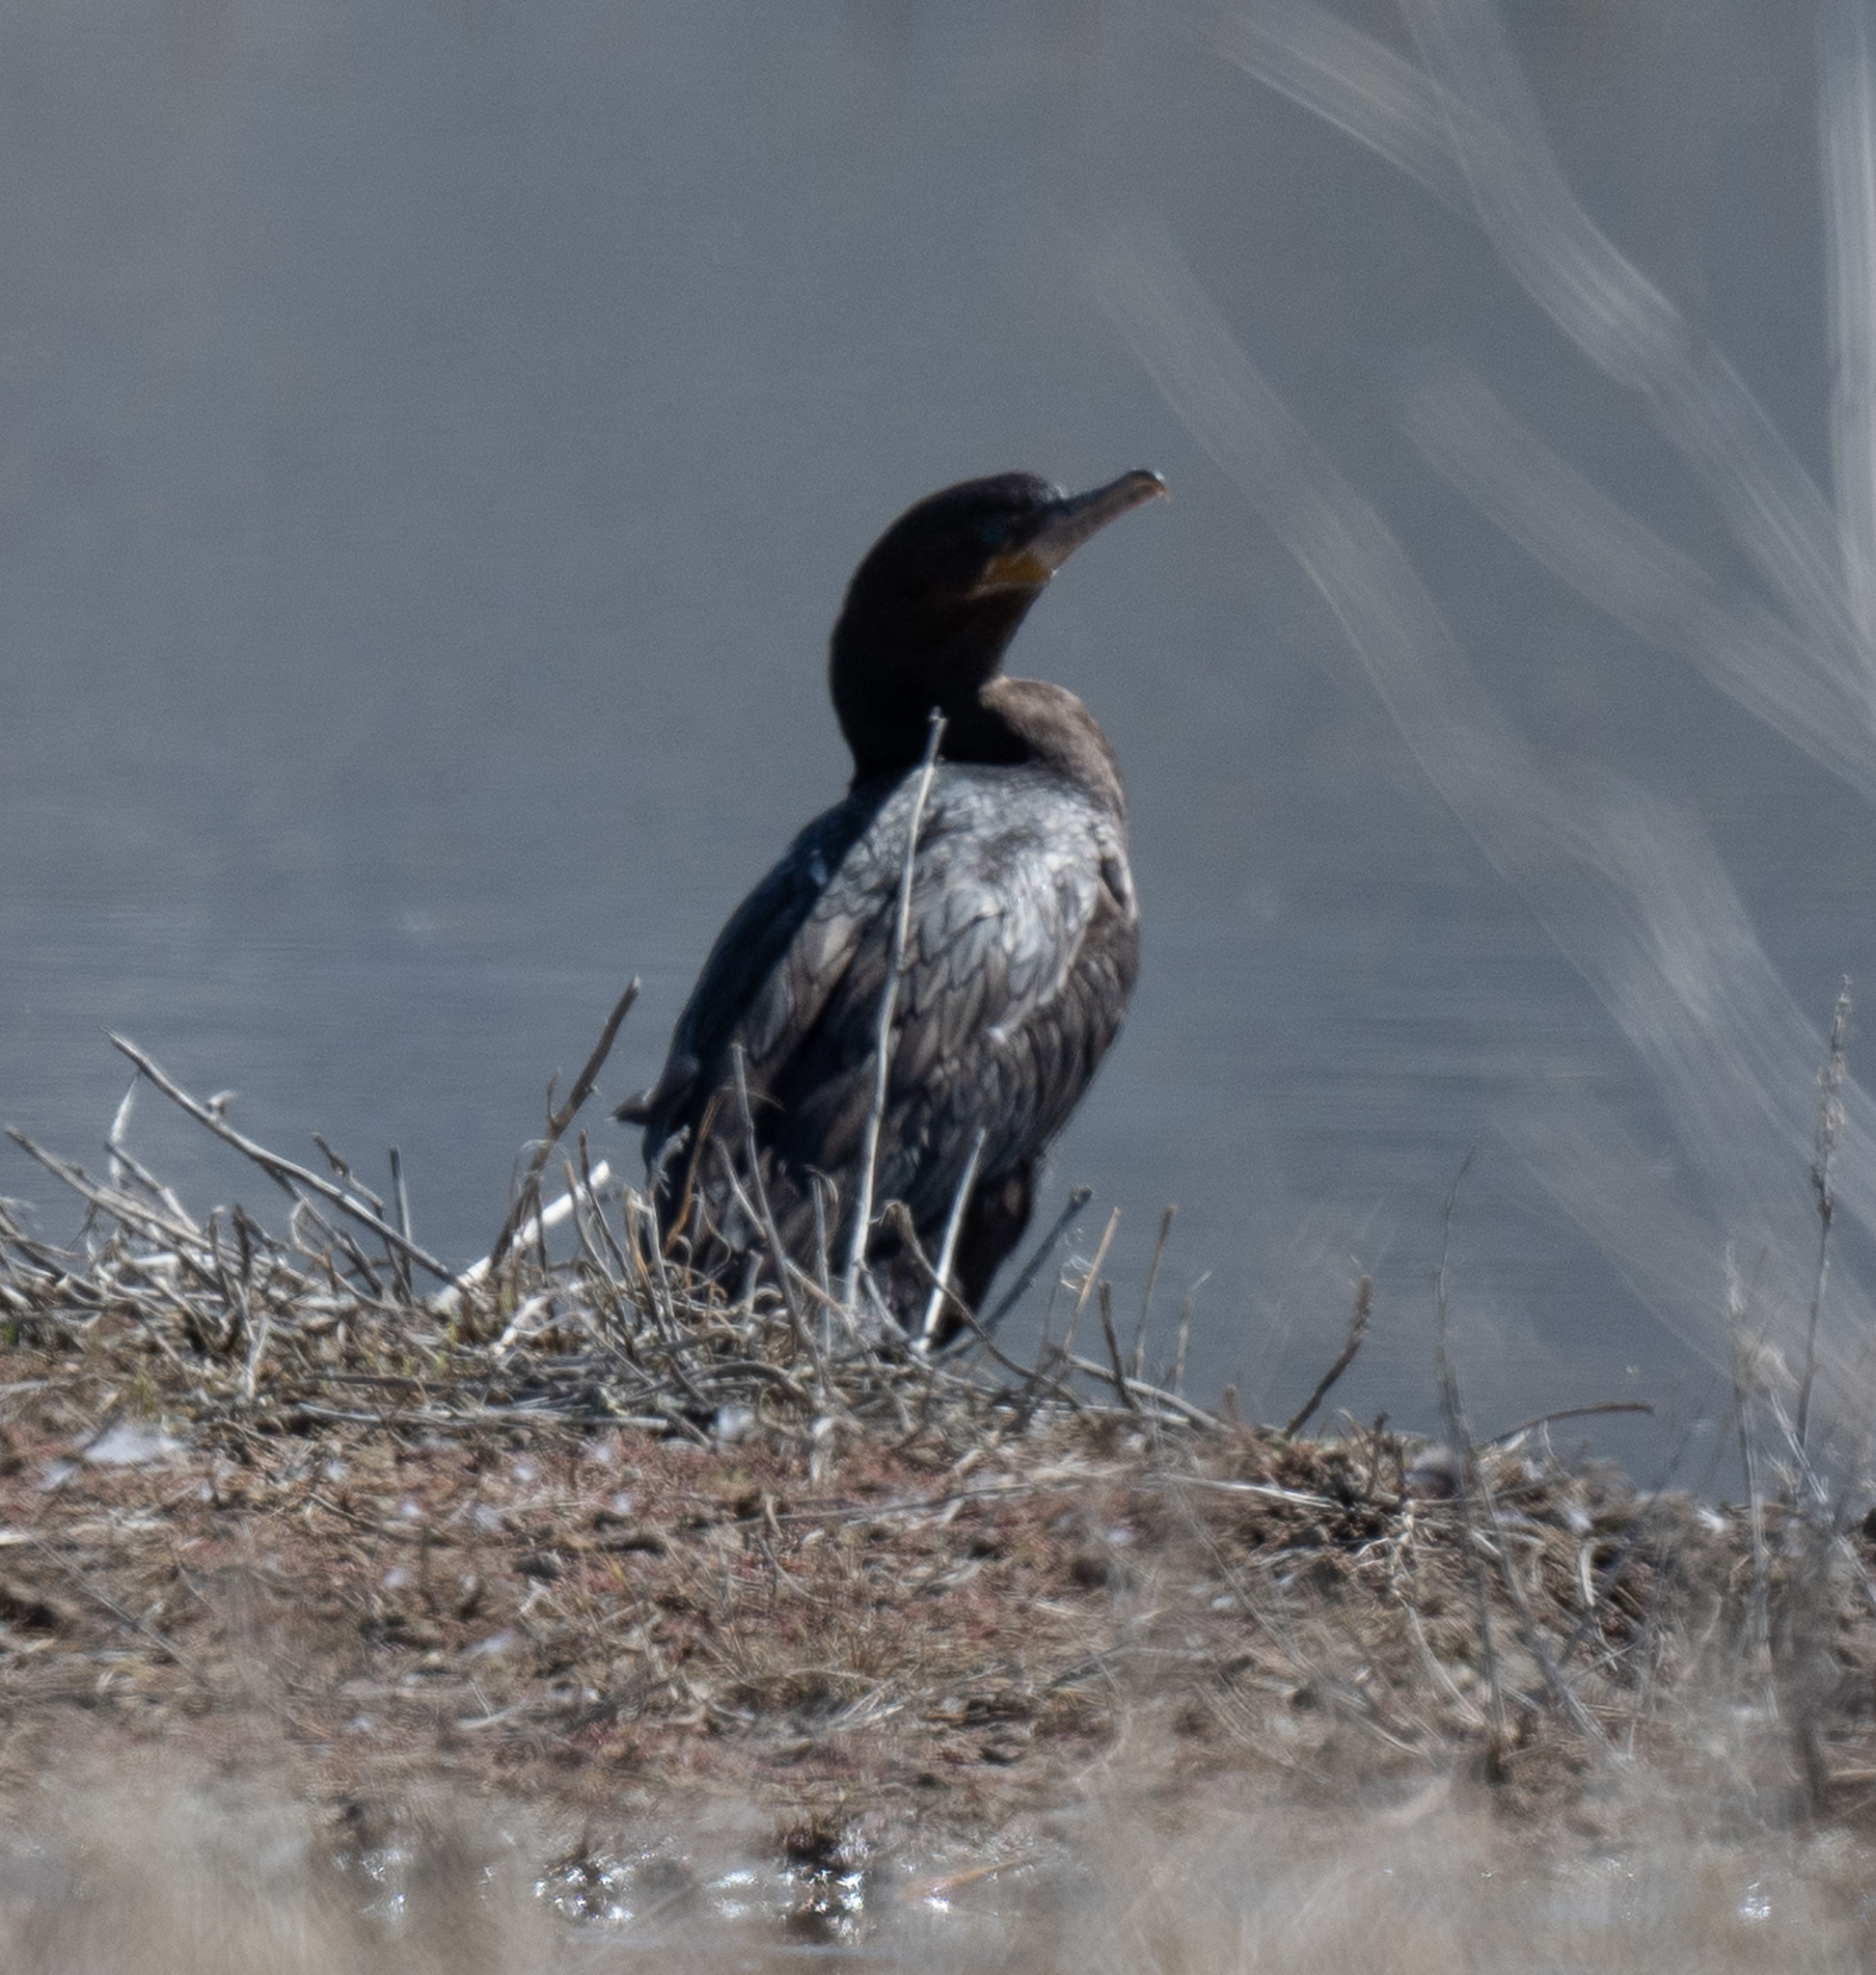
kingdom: Animalia
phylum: Chordata
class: Aves
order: Suliformes
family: Phalacrocoracidae
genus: Phalacrocorax
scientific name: Phalacrocorax brasilianus
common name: Neotropic cormorant
